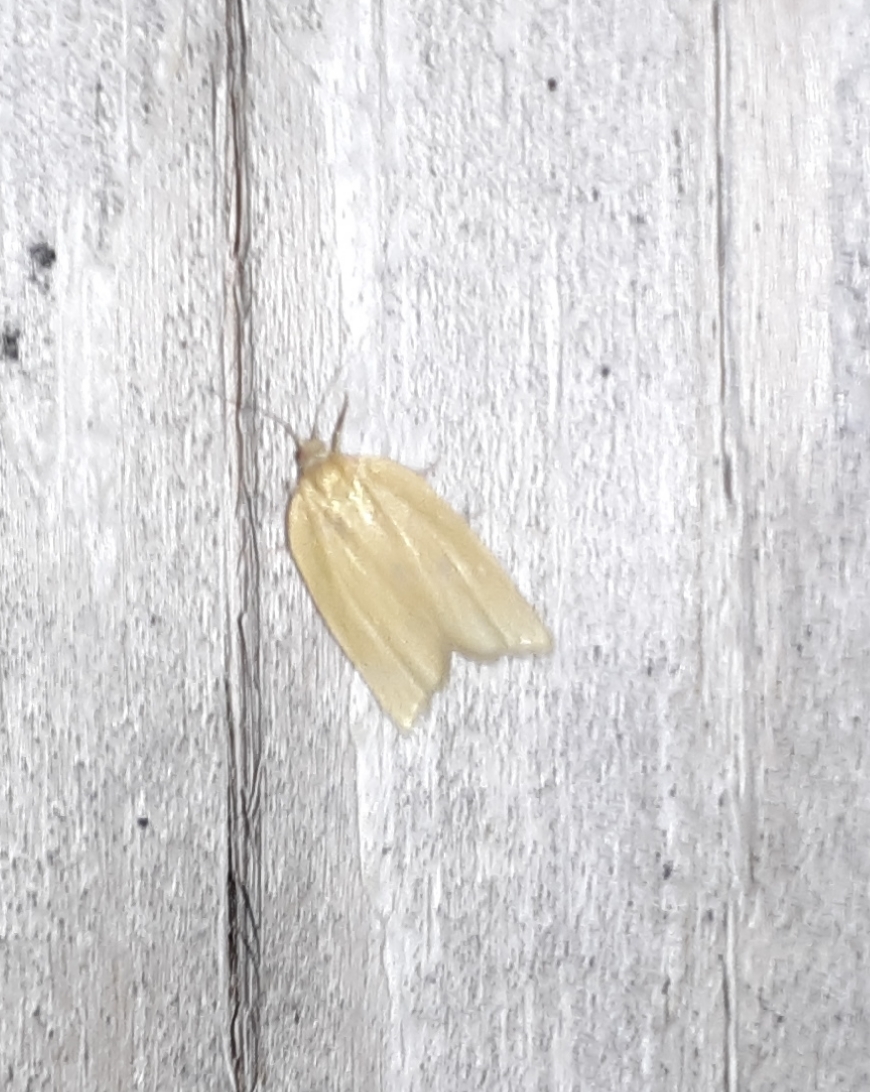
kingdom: Animalia
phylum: Arthropoda
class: Insecta
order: Lepidoptera
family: Tortricidae
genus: Clepsis
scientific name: Clepsis clemensiana
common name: Clemens' clepsis moth
